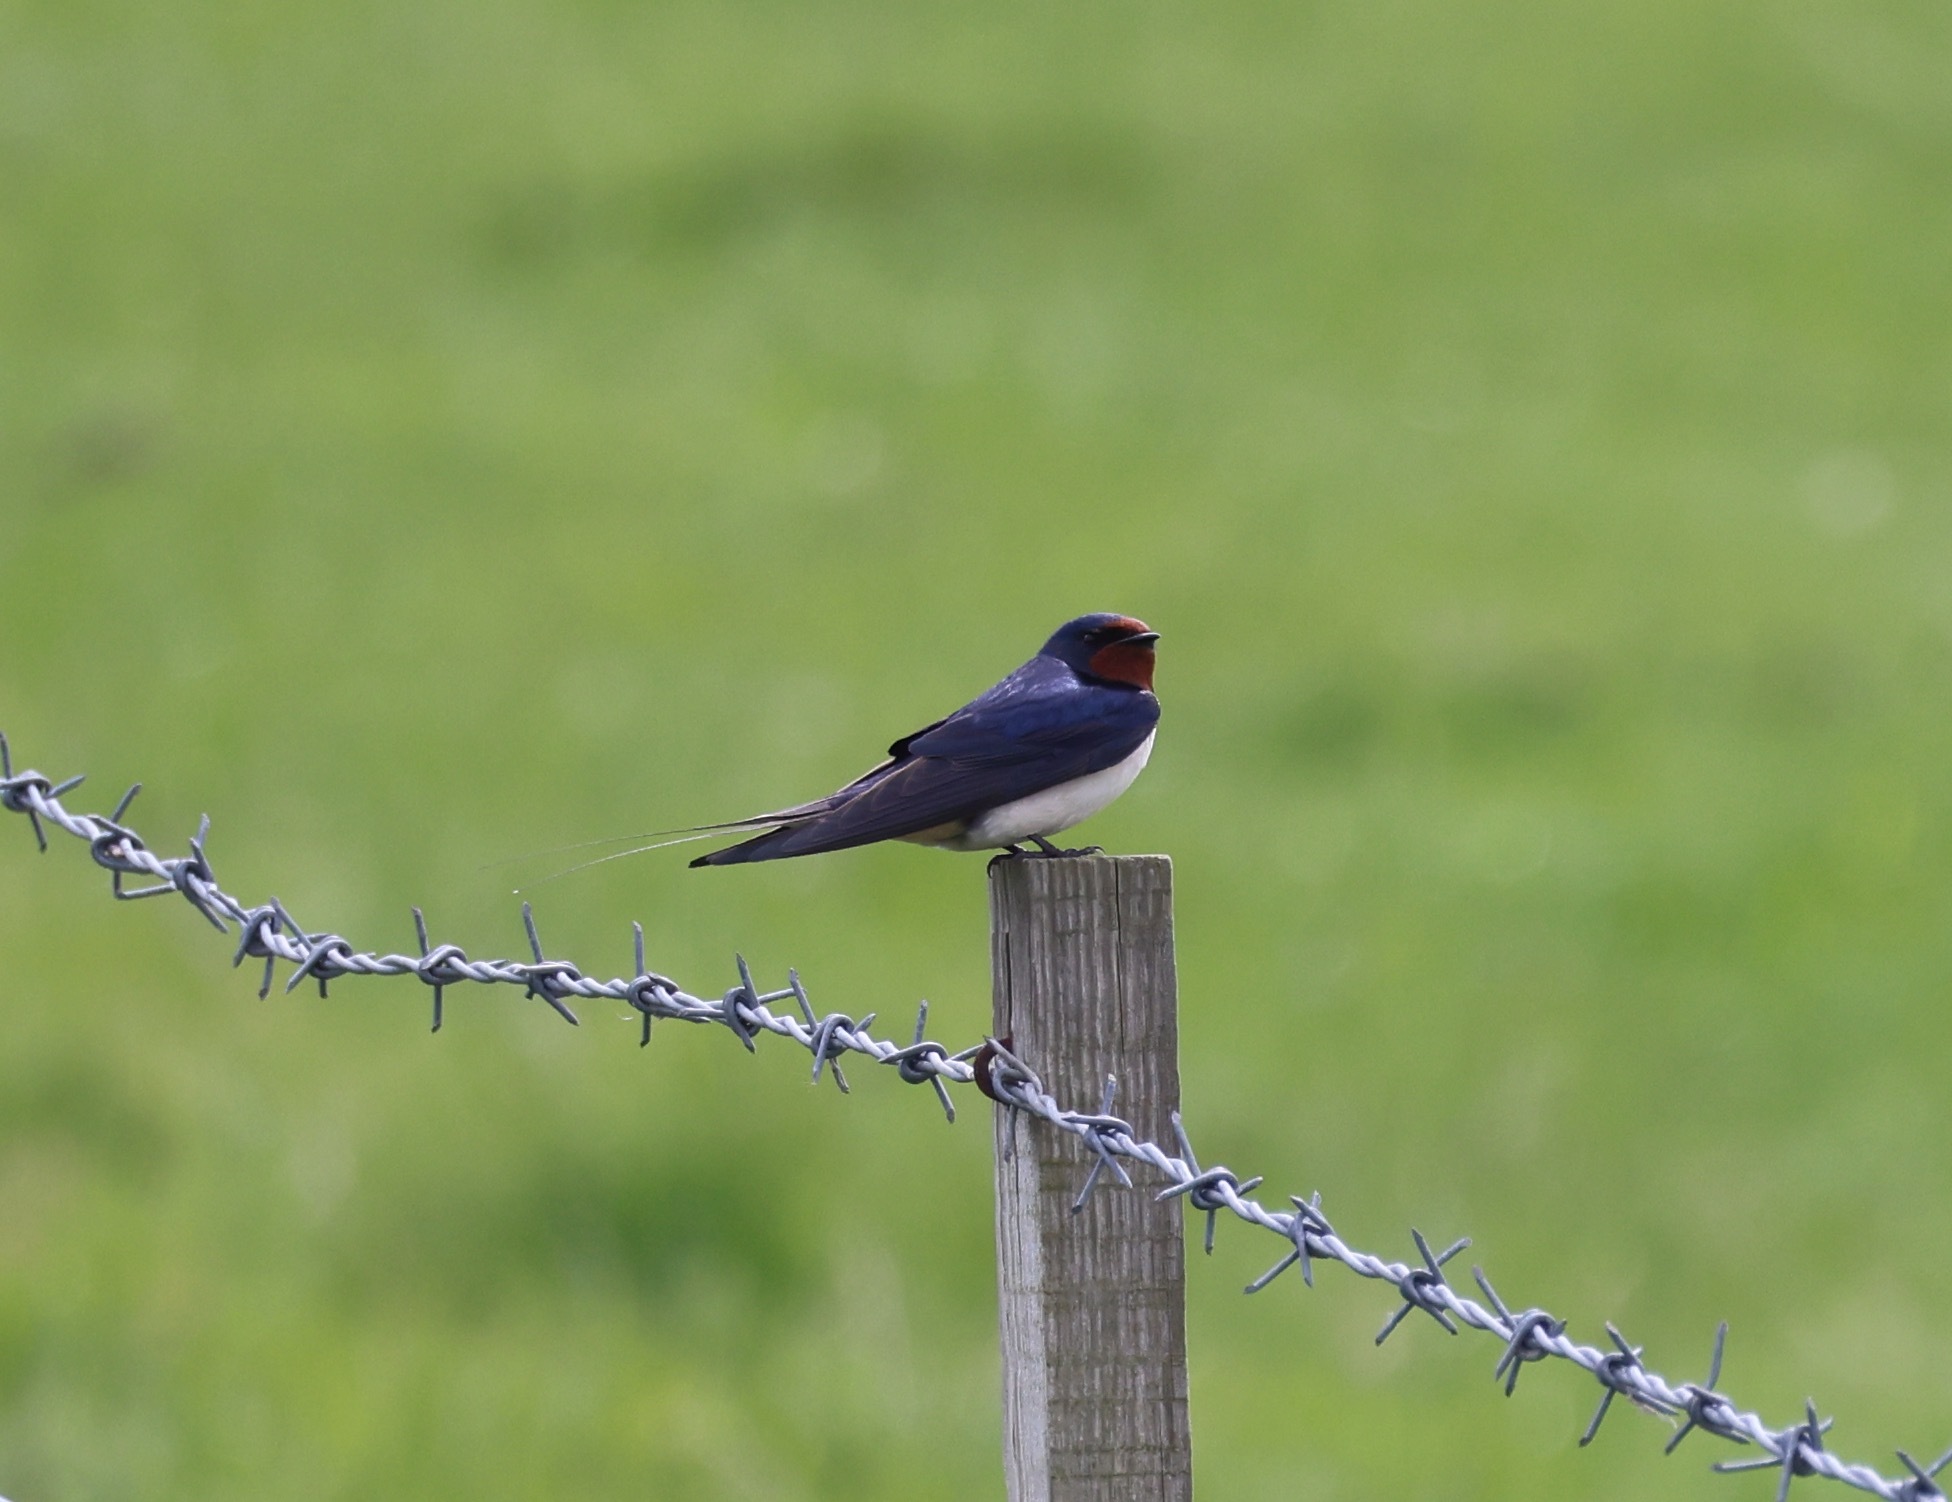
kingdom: Animalia
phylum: Chordata
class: Aves
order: Passeriformes
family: Hirundinidae
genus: Hirundo
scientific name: Hirundo rustica
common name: Barn swallow
